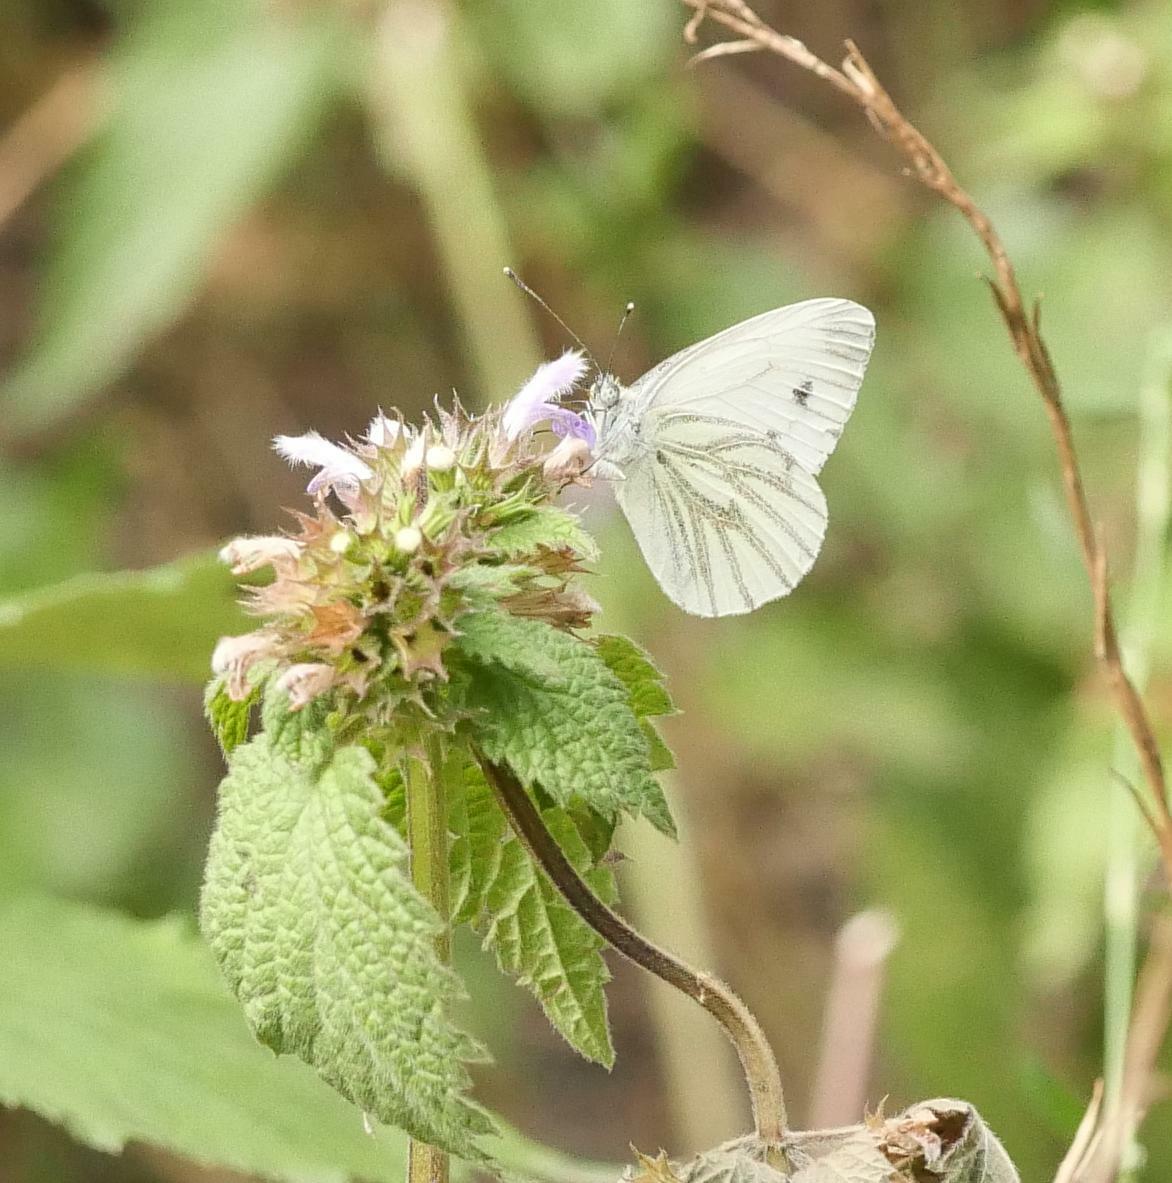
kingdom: Animalia
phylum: Arthropoda
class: Insecta
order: Lepidoptera
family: Pieridae
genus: Pieris
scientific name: Pieris napi
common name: Green-veined white
